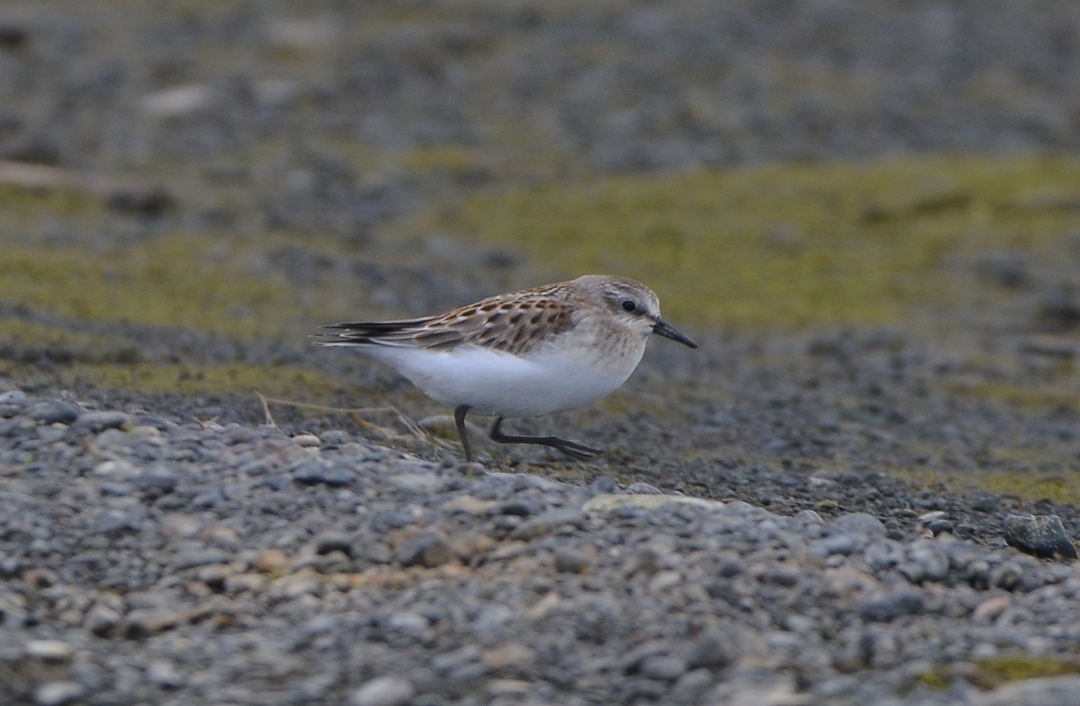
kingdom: Animalia
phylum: Chordata
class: Aves
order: Charadriiformes
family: Scolopacidae
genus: Calidris
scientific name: Calidris ruficollis
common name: Red-necked stint
